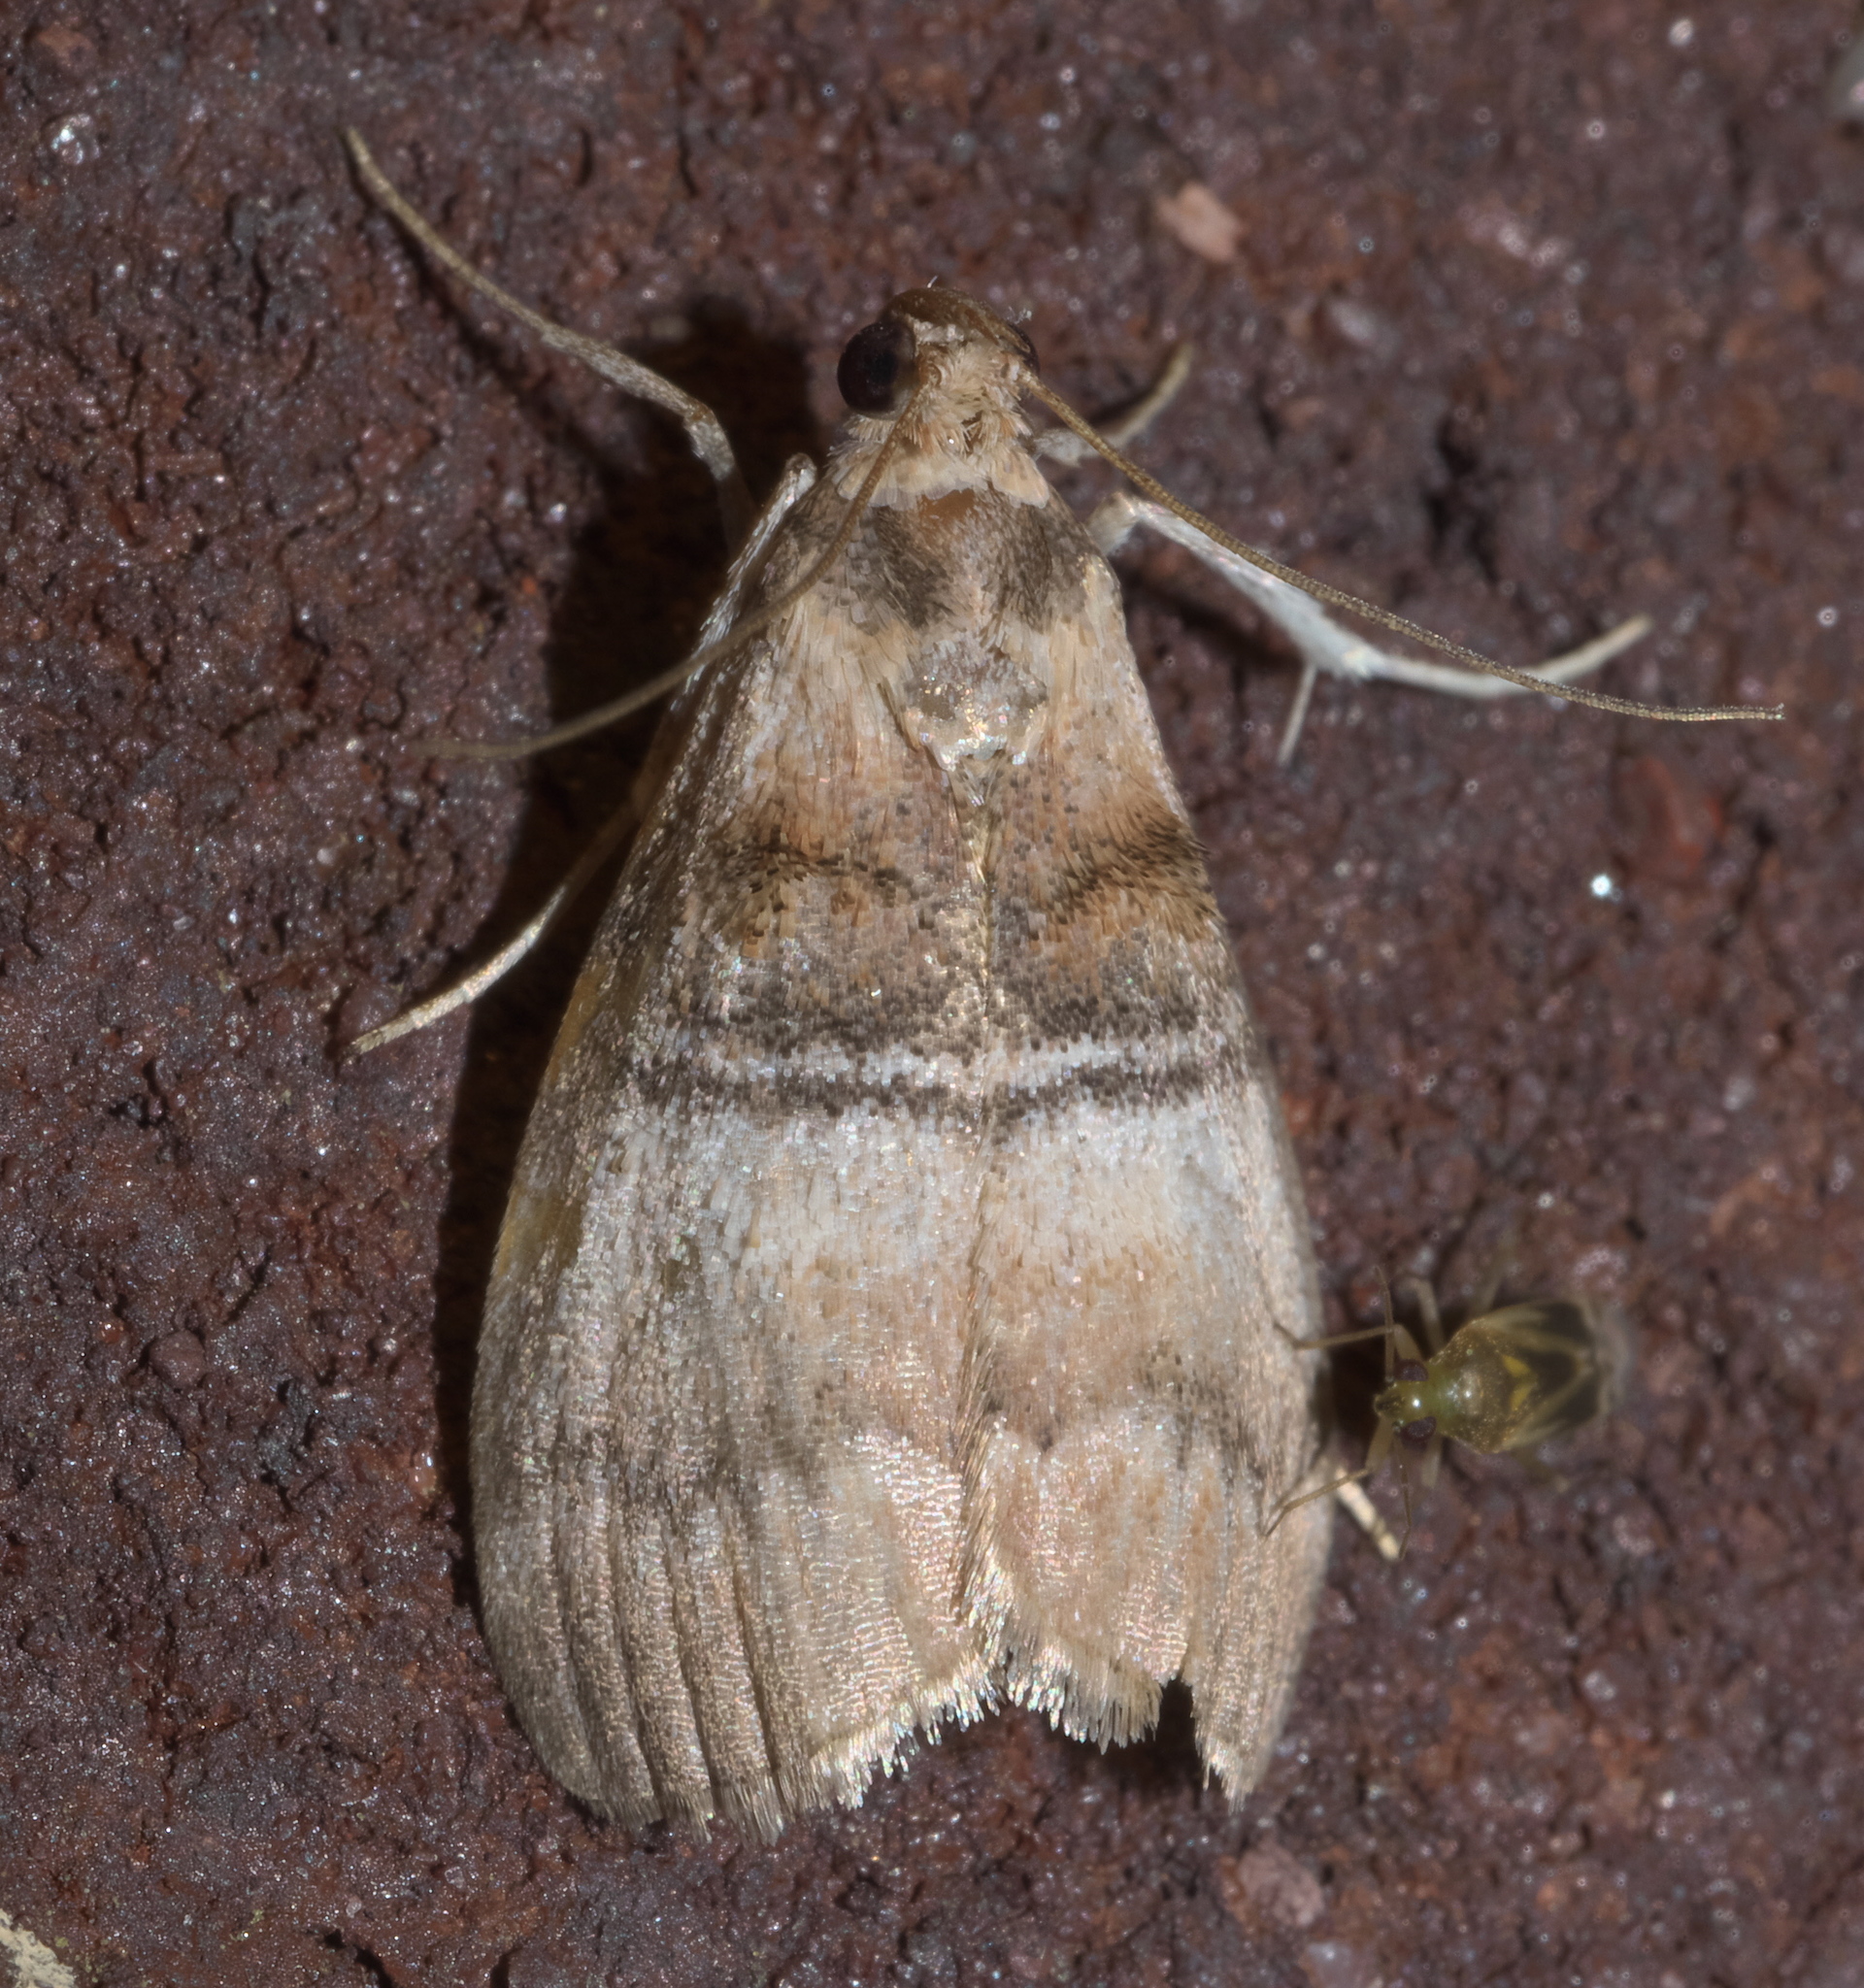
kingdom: Animalia
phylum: Arthropoda
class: Insecta
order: Lepidoptera
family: Pyralidae
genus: Pococera
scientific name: Pococera militella
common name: Sycamore webworm moth
